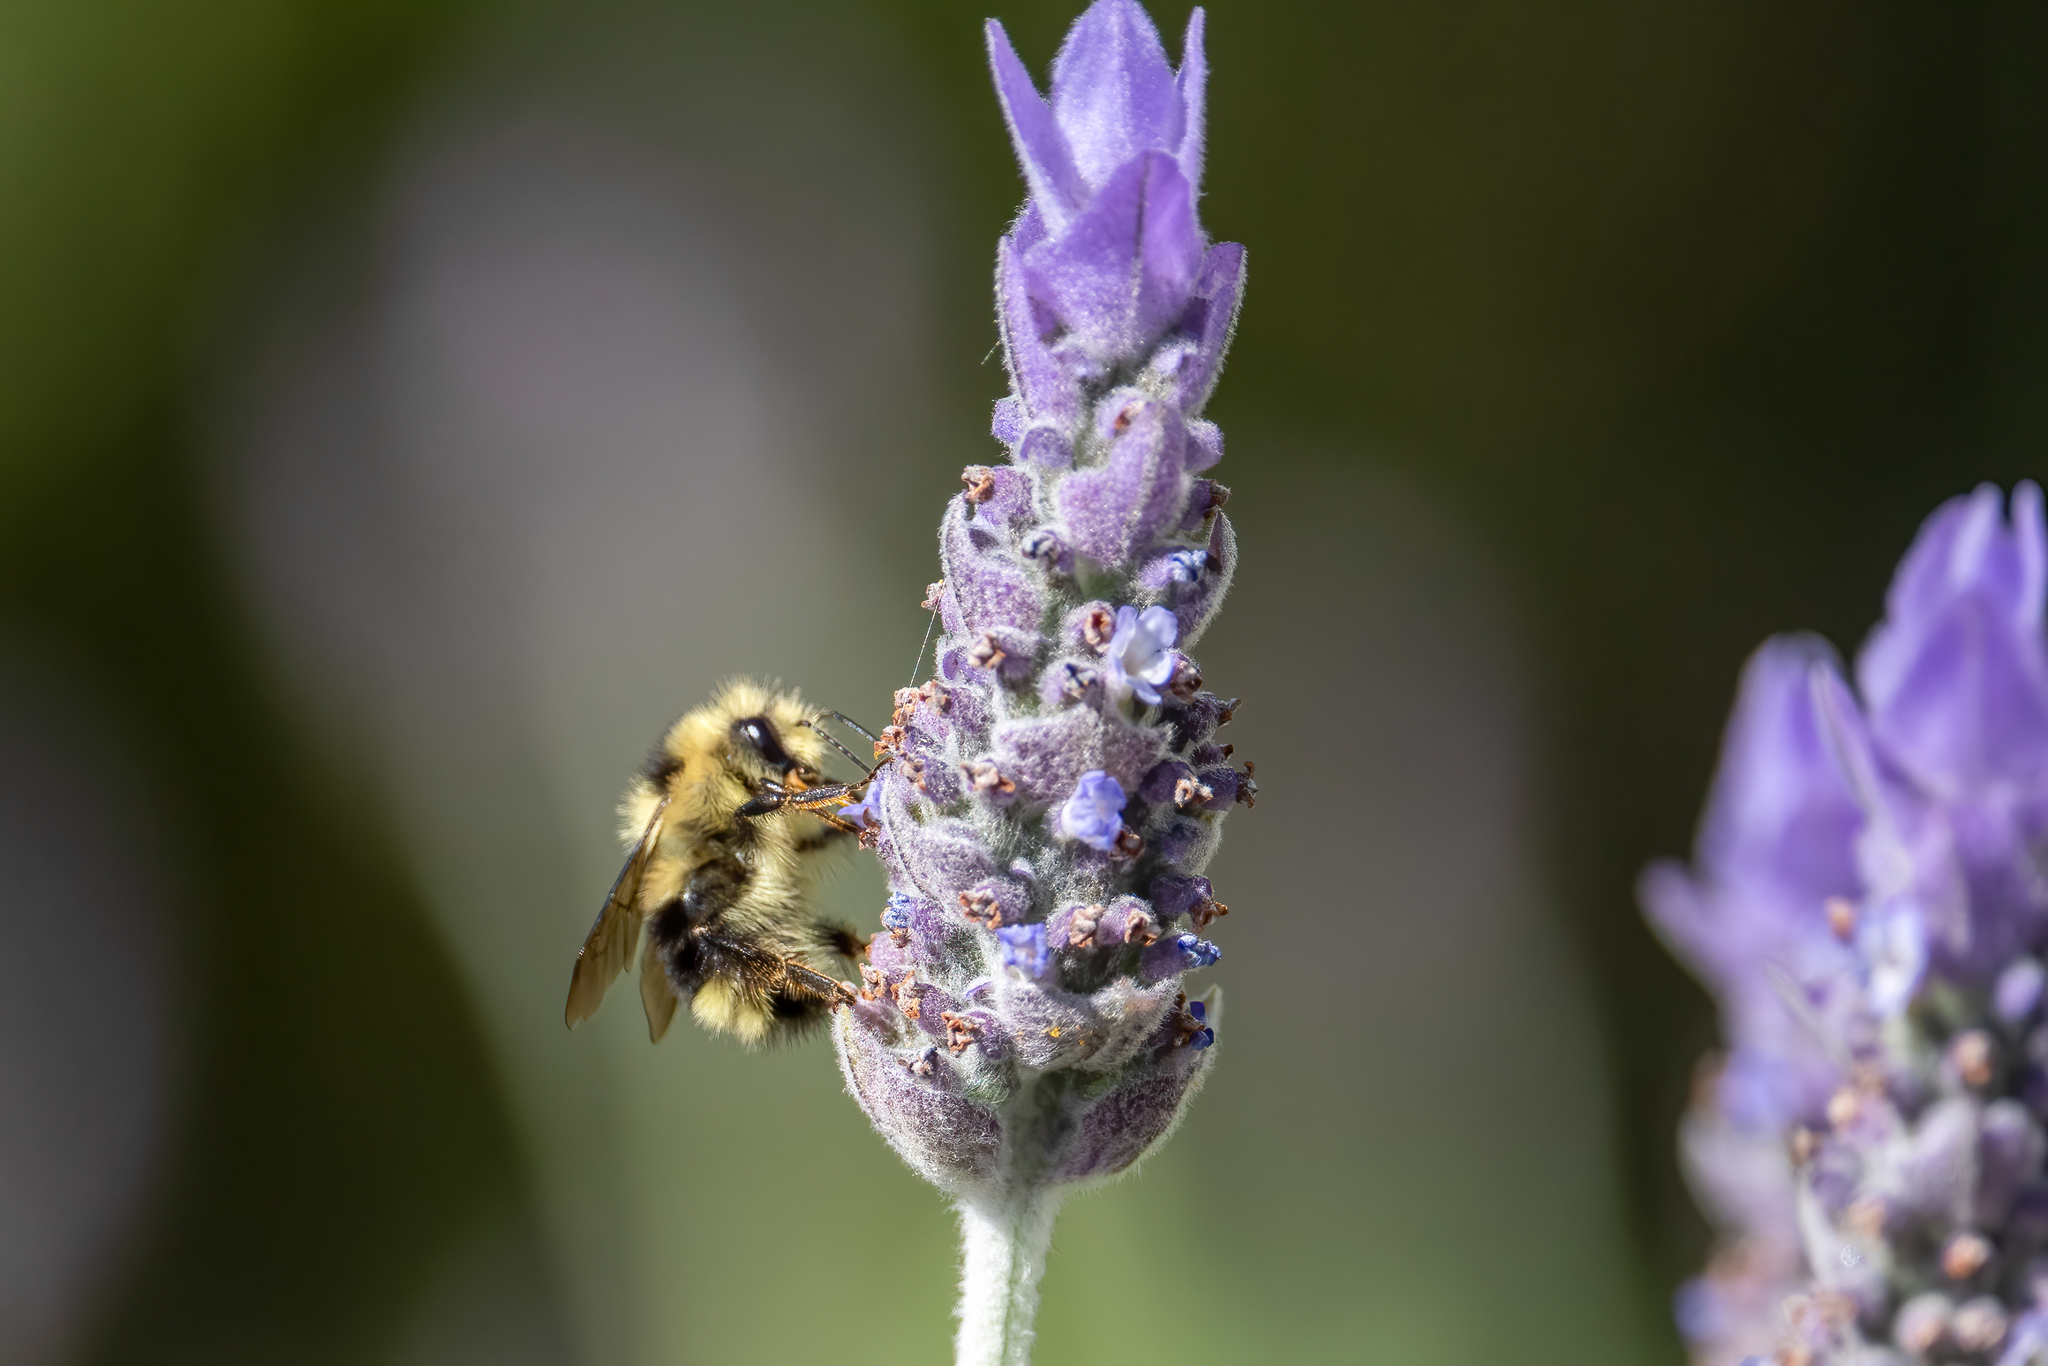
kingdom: Animalia
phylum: Arthropoda
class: Insecta
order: Hymenoptera
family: Apidae
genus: Bombus
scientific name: Bombus melanopygus
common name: Black tail bumble bee
